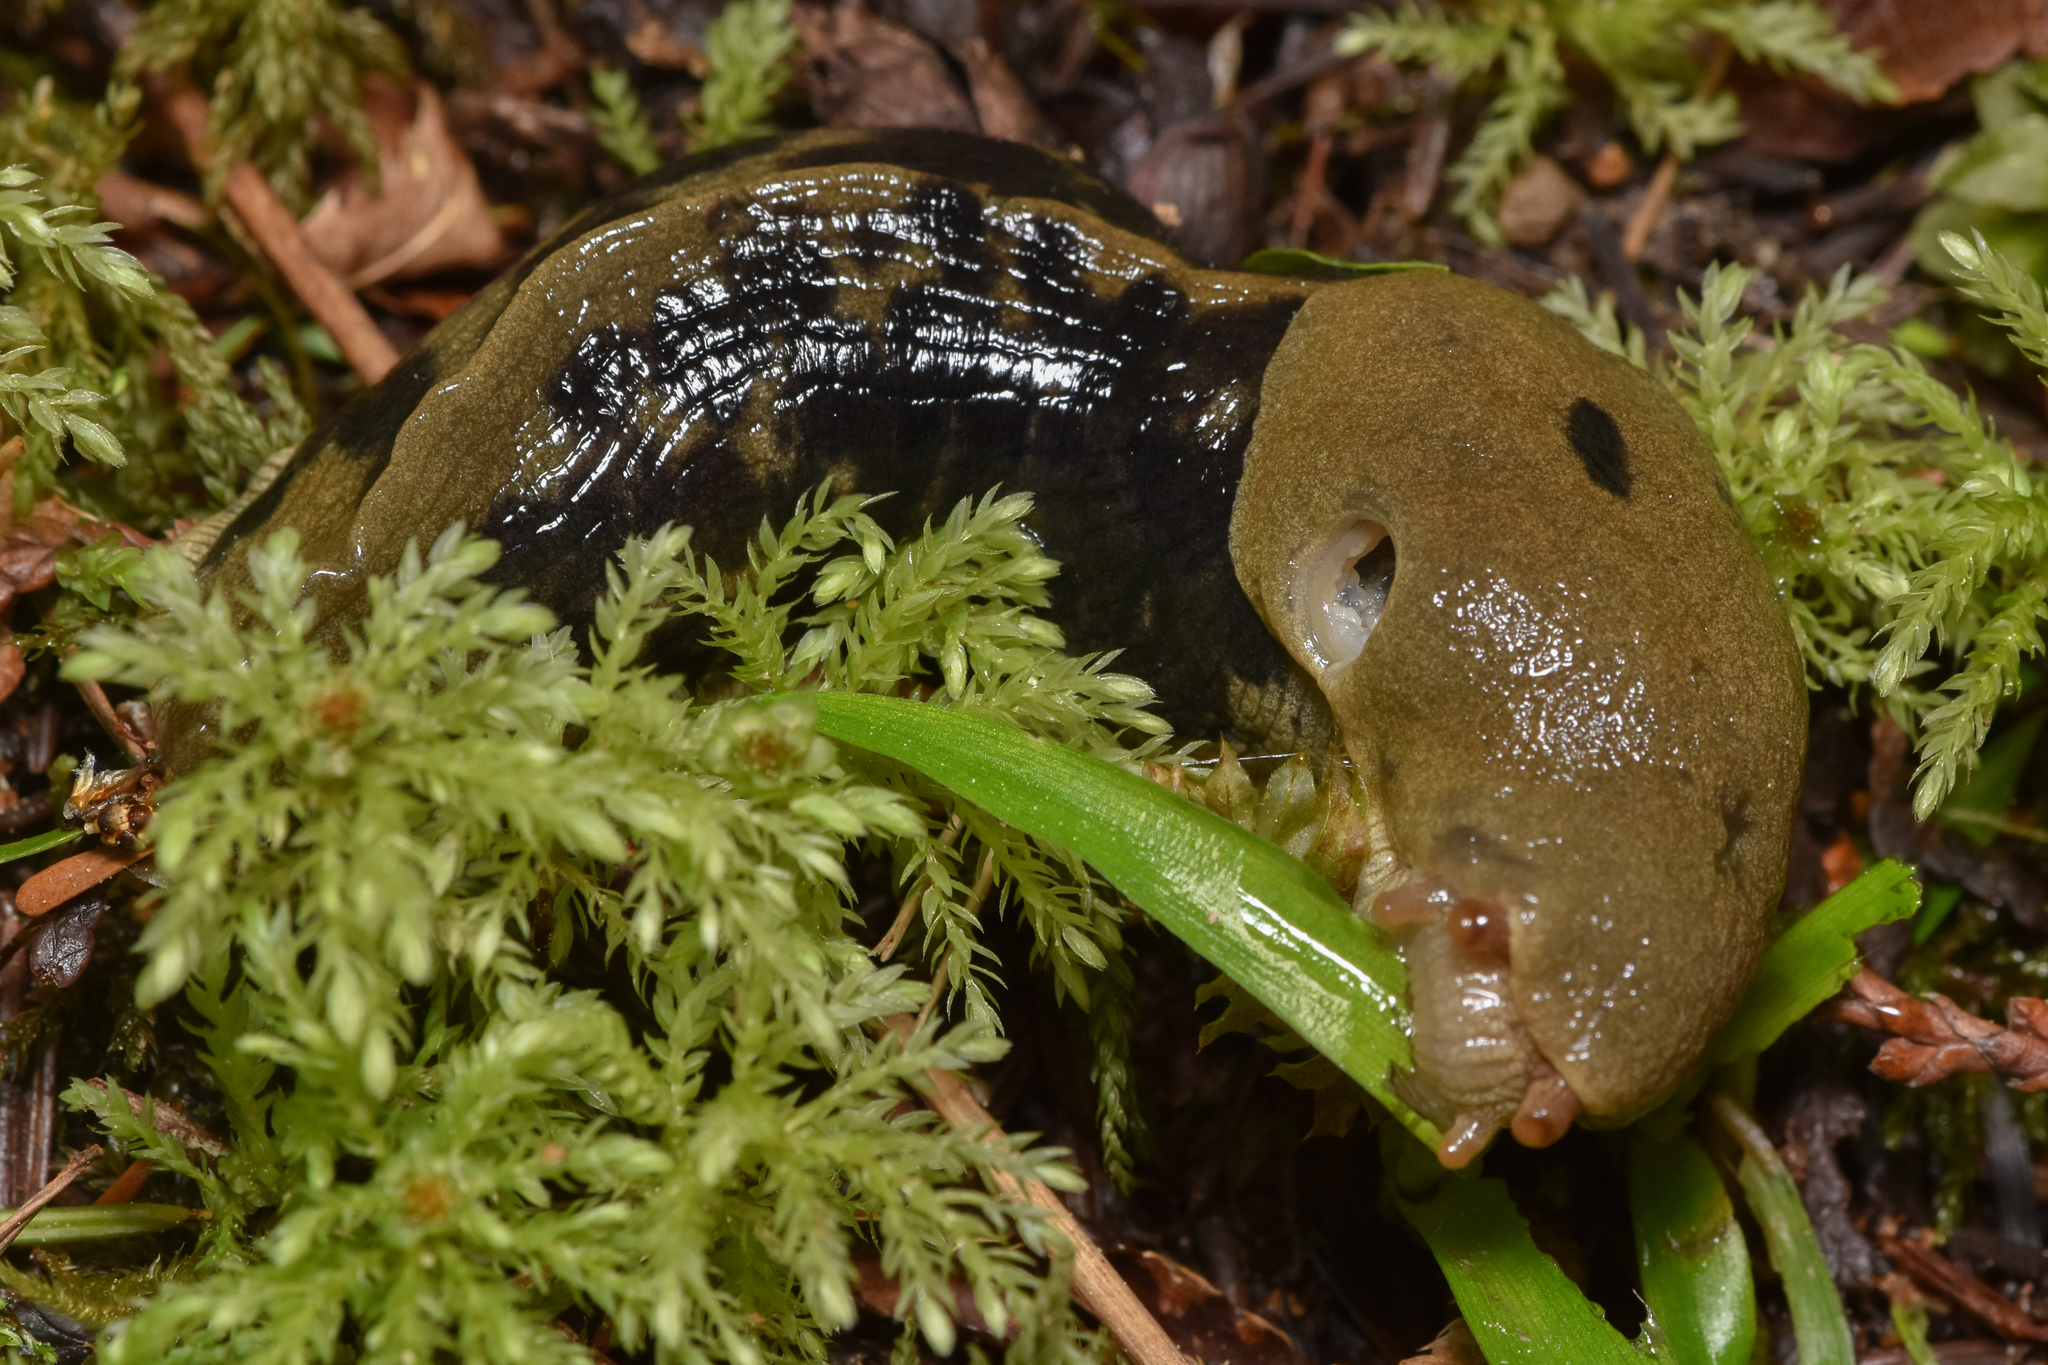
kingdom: Animalia
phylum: Mollusca
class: Gastropoda
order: Stylommatophora
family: Ariolimacidae
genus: Ariolimax
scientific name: Ariolimax columbianus
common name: Pacific banana slug
